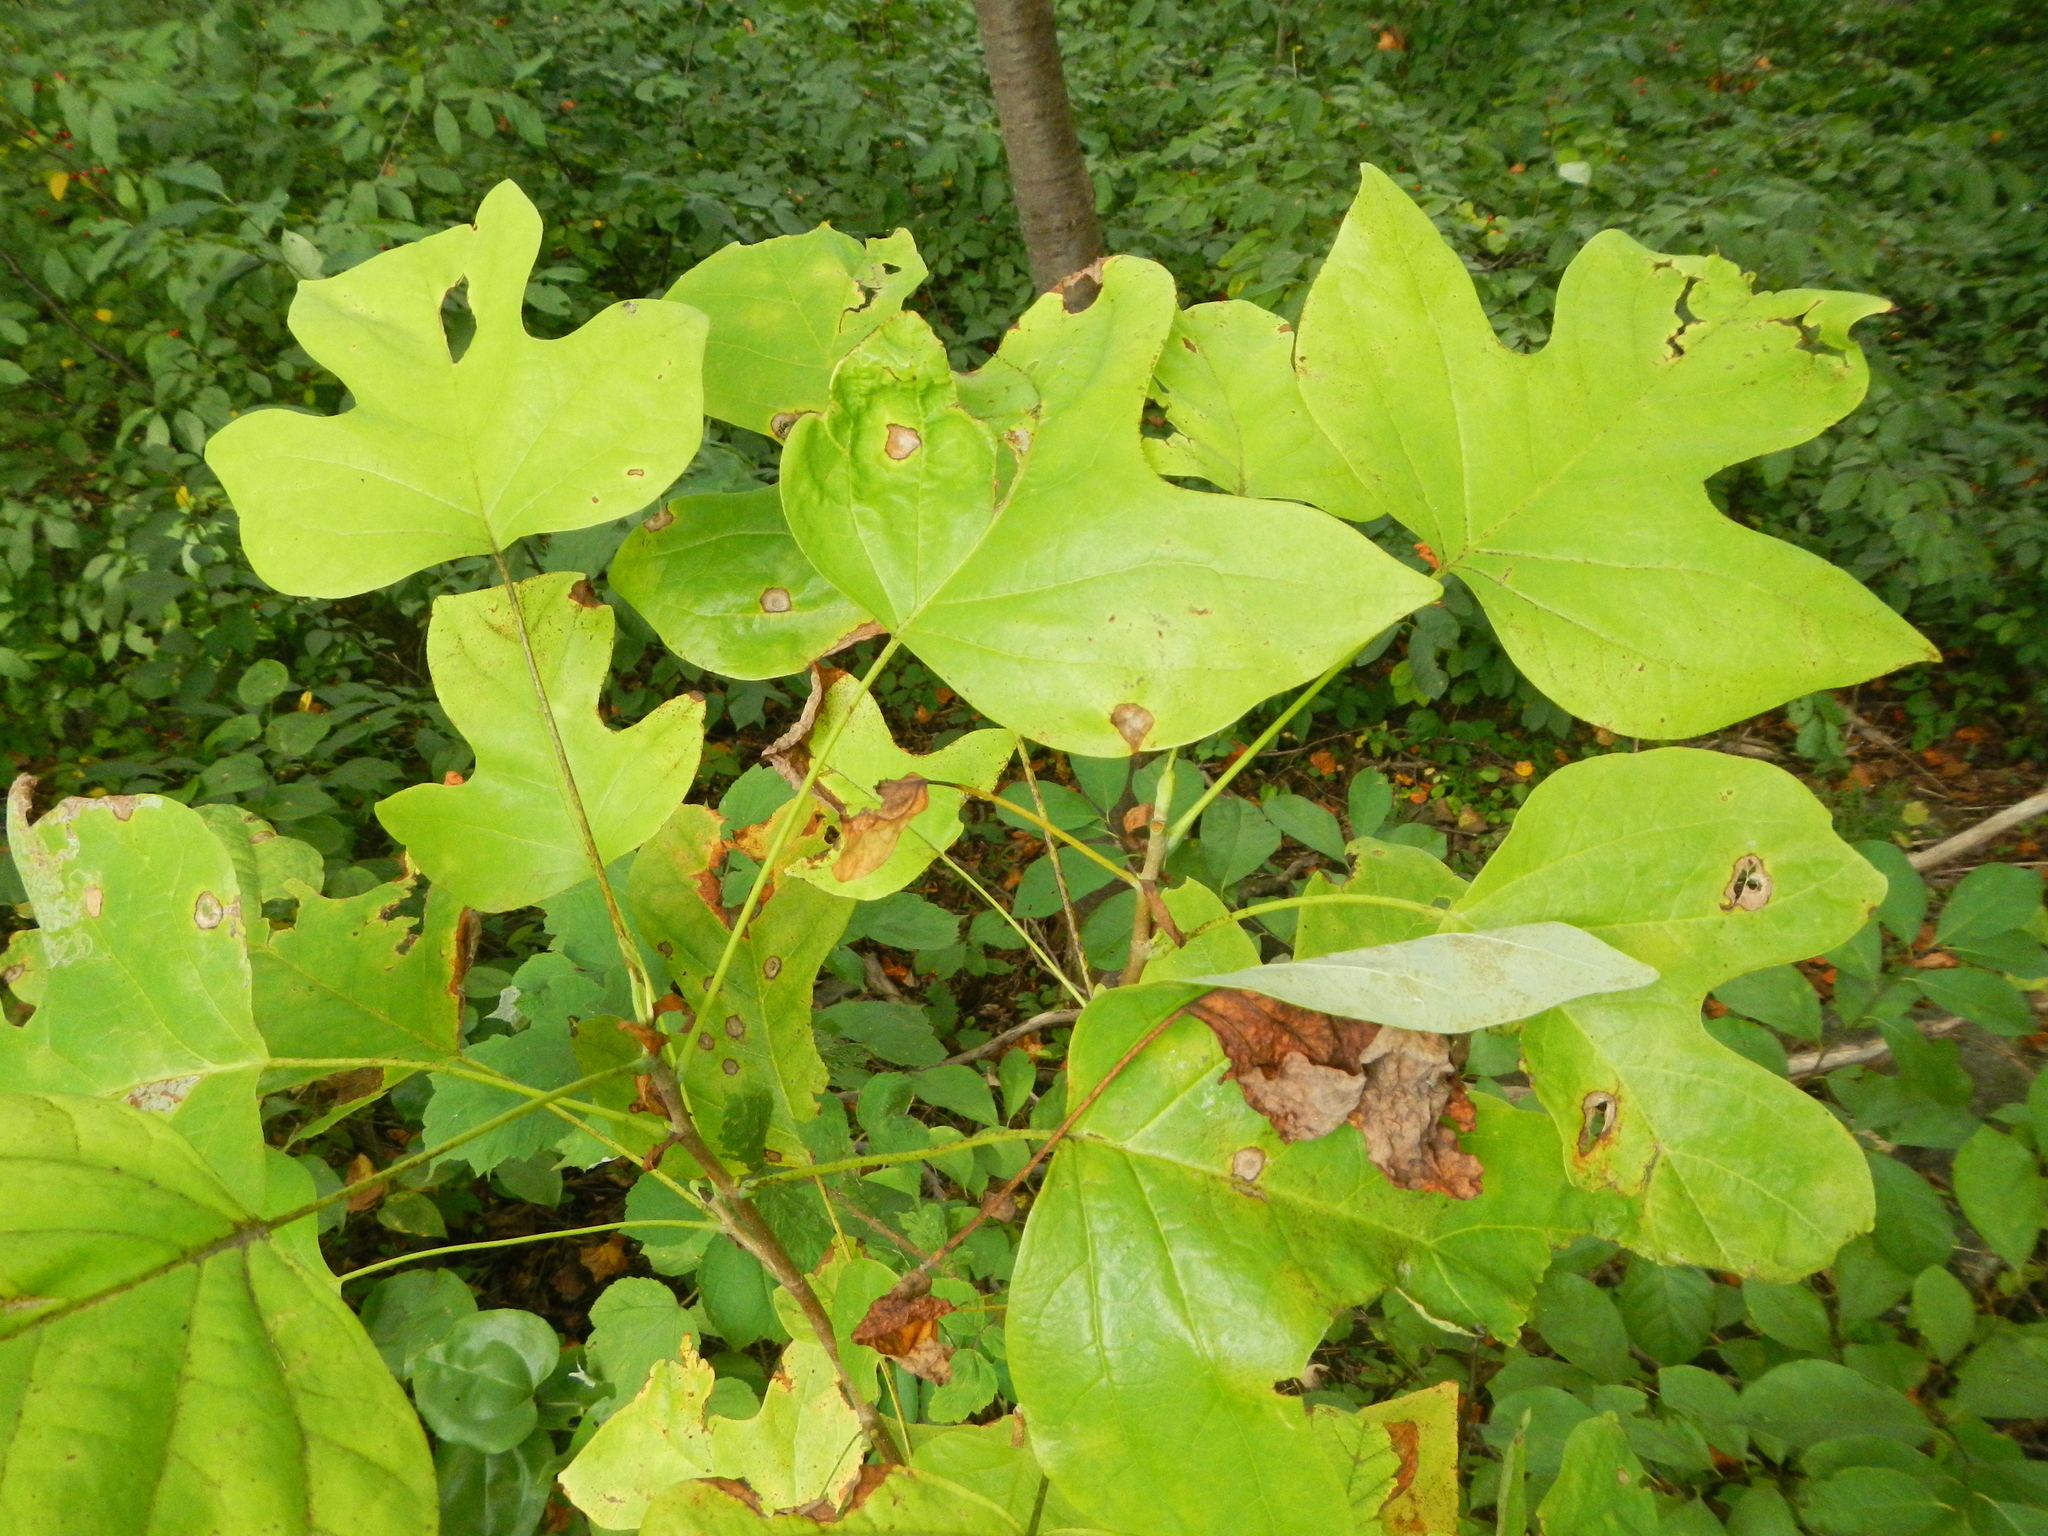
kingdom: Plantae
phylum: Tracheophyta
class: Magnoliopsida
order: Magnoliales
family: Magnoliaceae
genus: Liriodendron
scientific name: Liriodendron tulipifera
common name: Tulip tree
